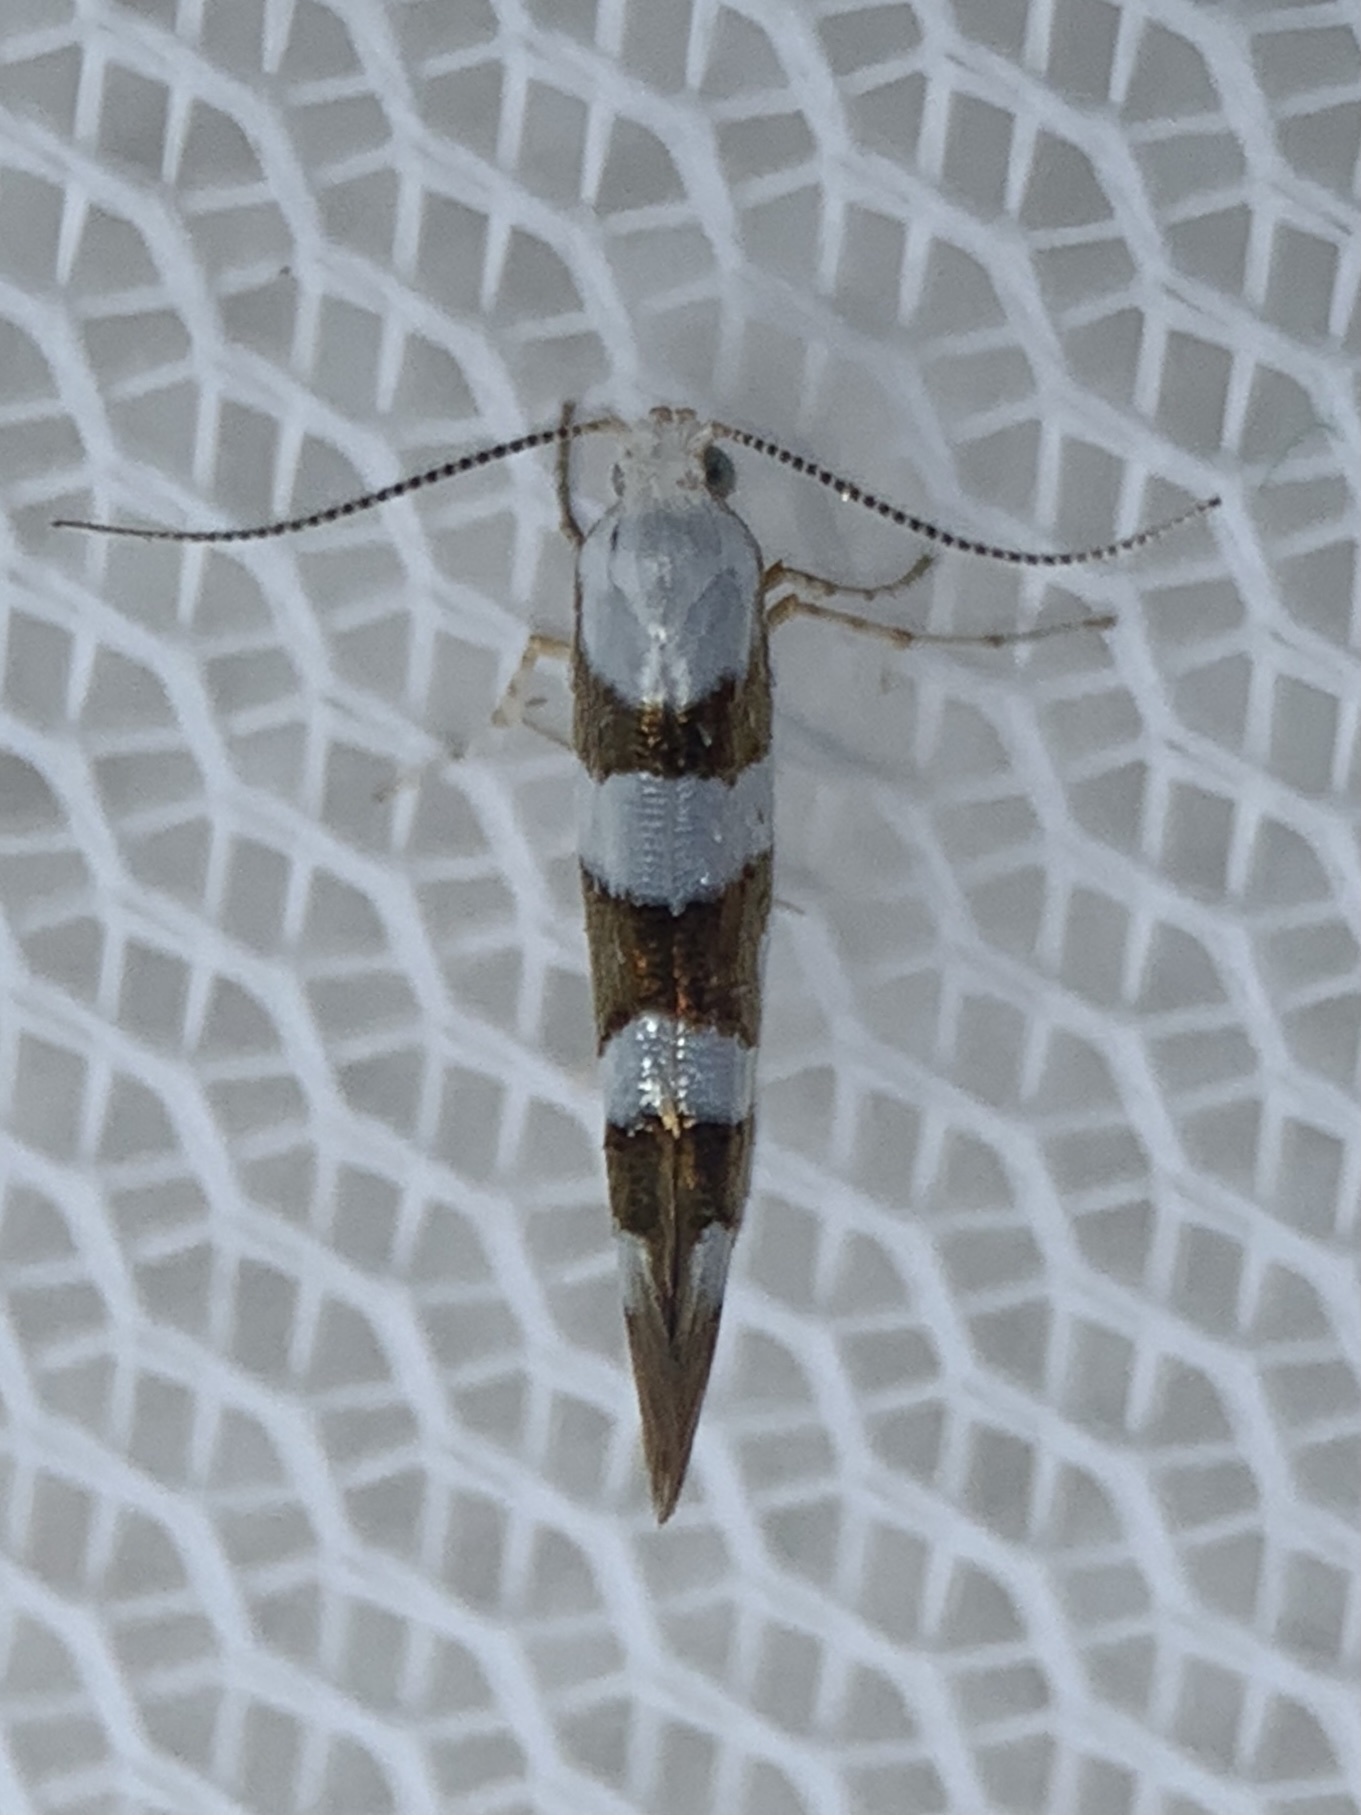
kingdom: Animalia
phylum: Arthropoda
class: Insecta
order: Lepidoptera
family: Argyresthiidae
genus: Argyresthia
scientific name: Argyresthia calliphanes
